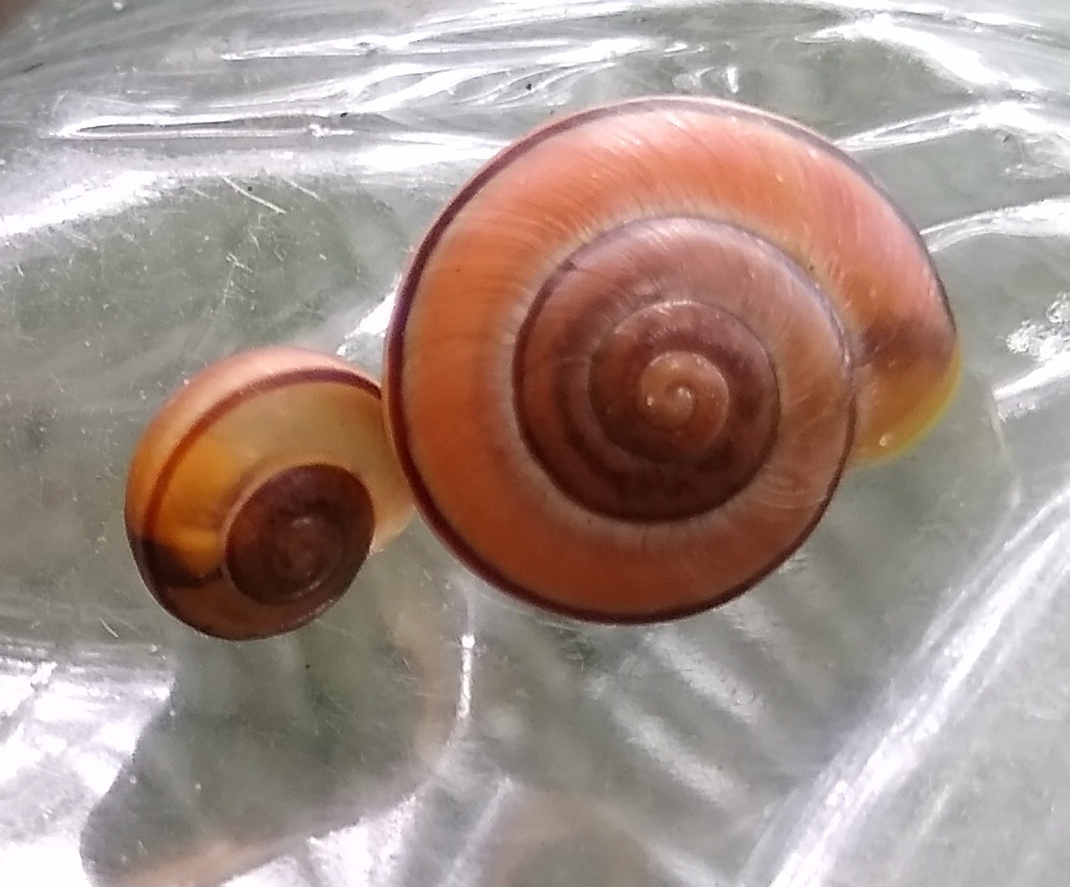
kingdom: Animalia
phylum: Mollusca
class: Gastropoda
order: Stylommatophora
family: Helicidae
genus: Cepaea
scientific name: Cepaea
